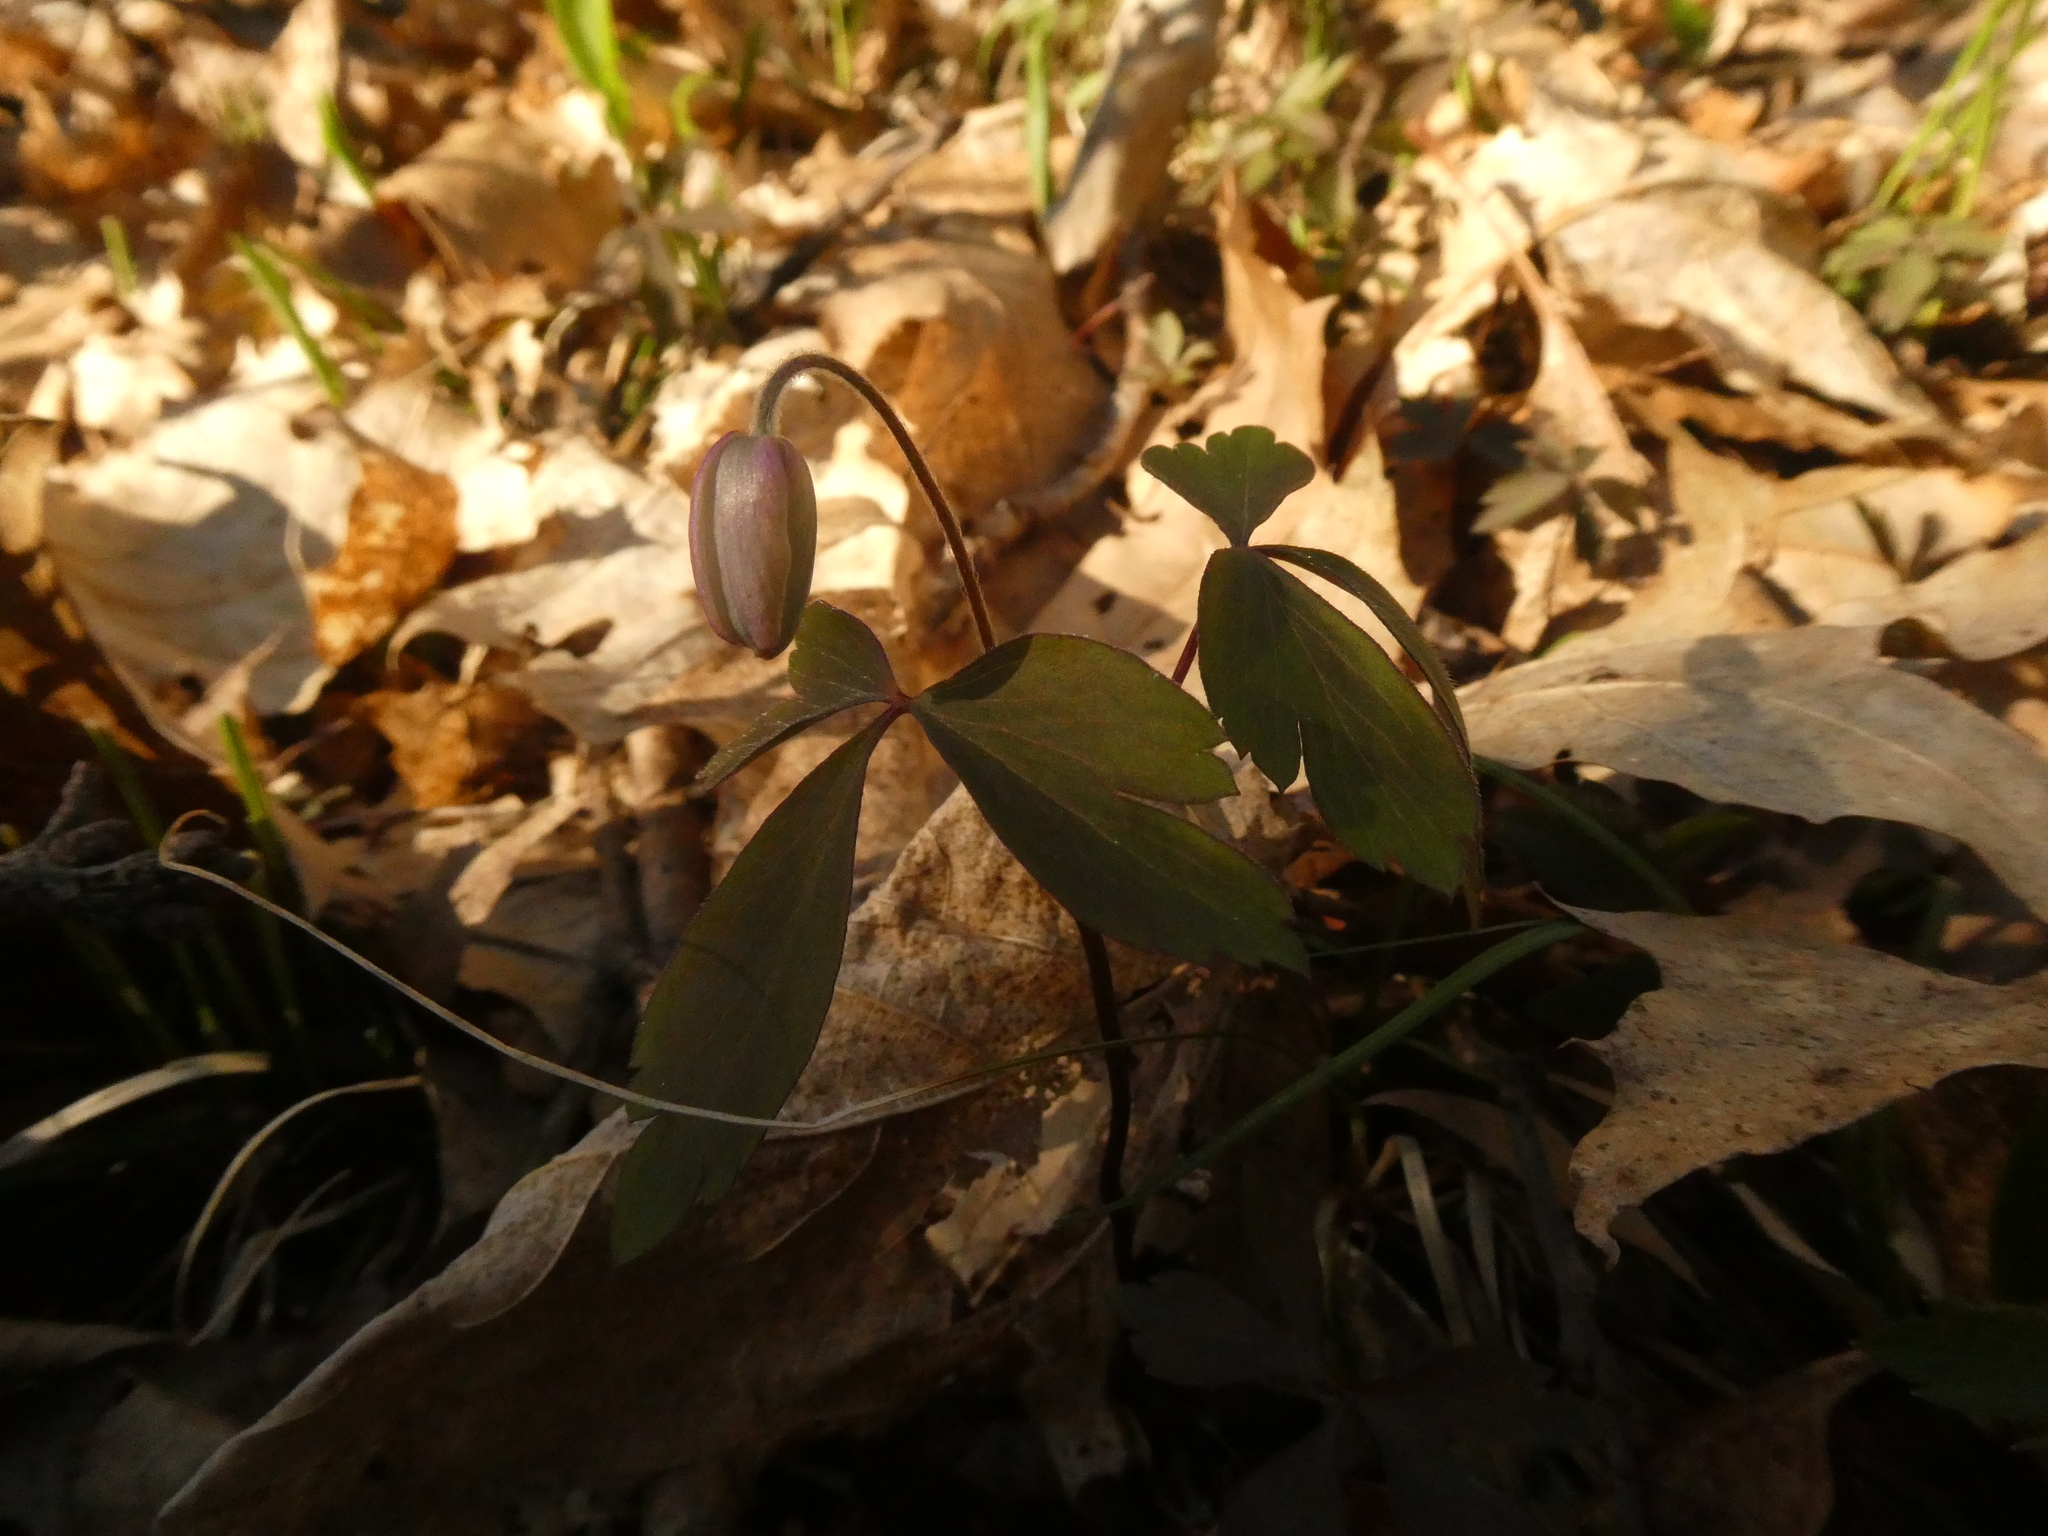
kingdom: Plantae
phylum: Tracheophyta
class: Magnoliopsida
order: Ranunculales
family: Ranunculaceae
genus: Anemone
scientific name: Anemone quinquefolia
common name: Wood anemone
